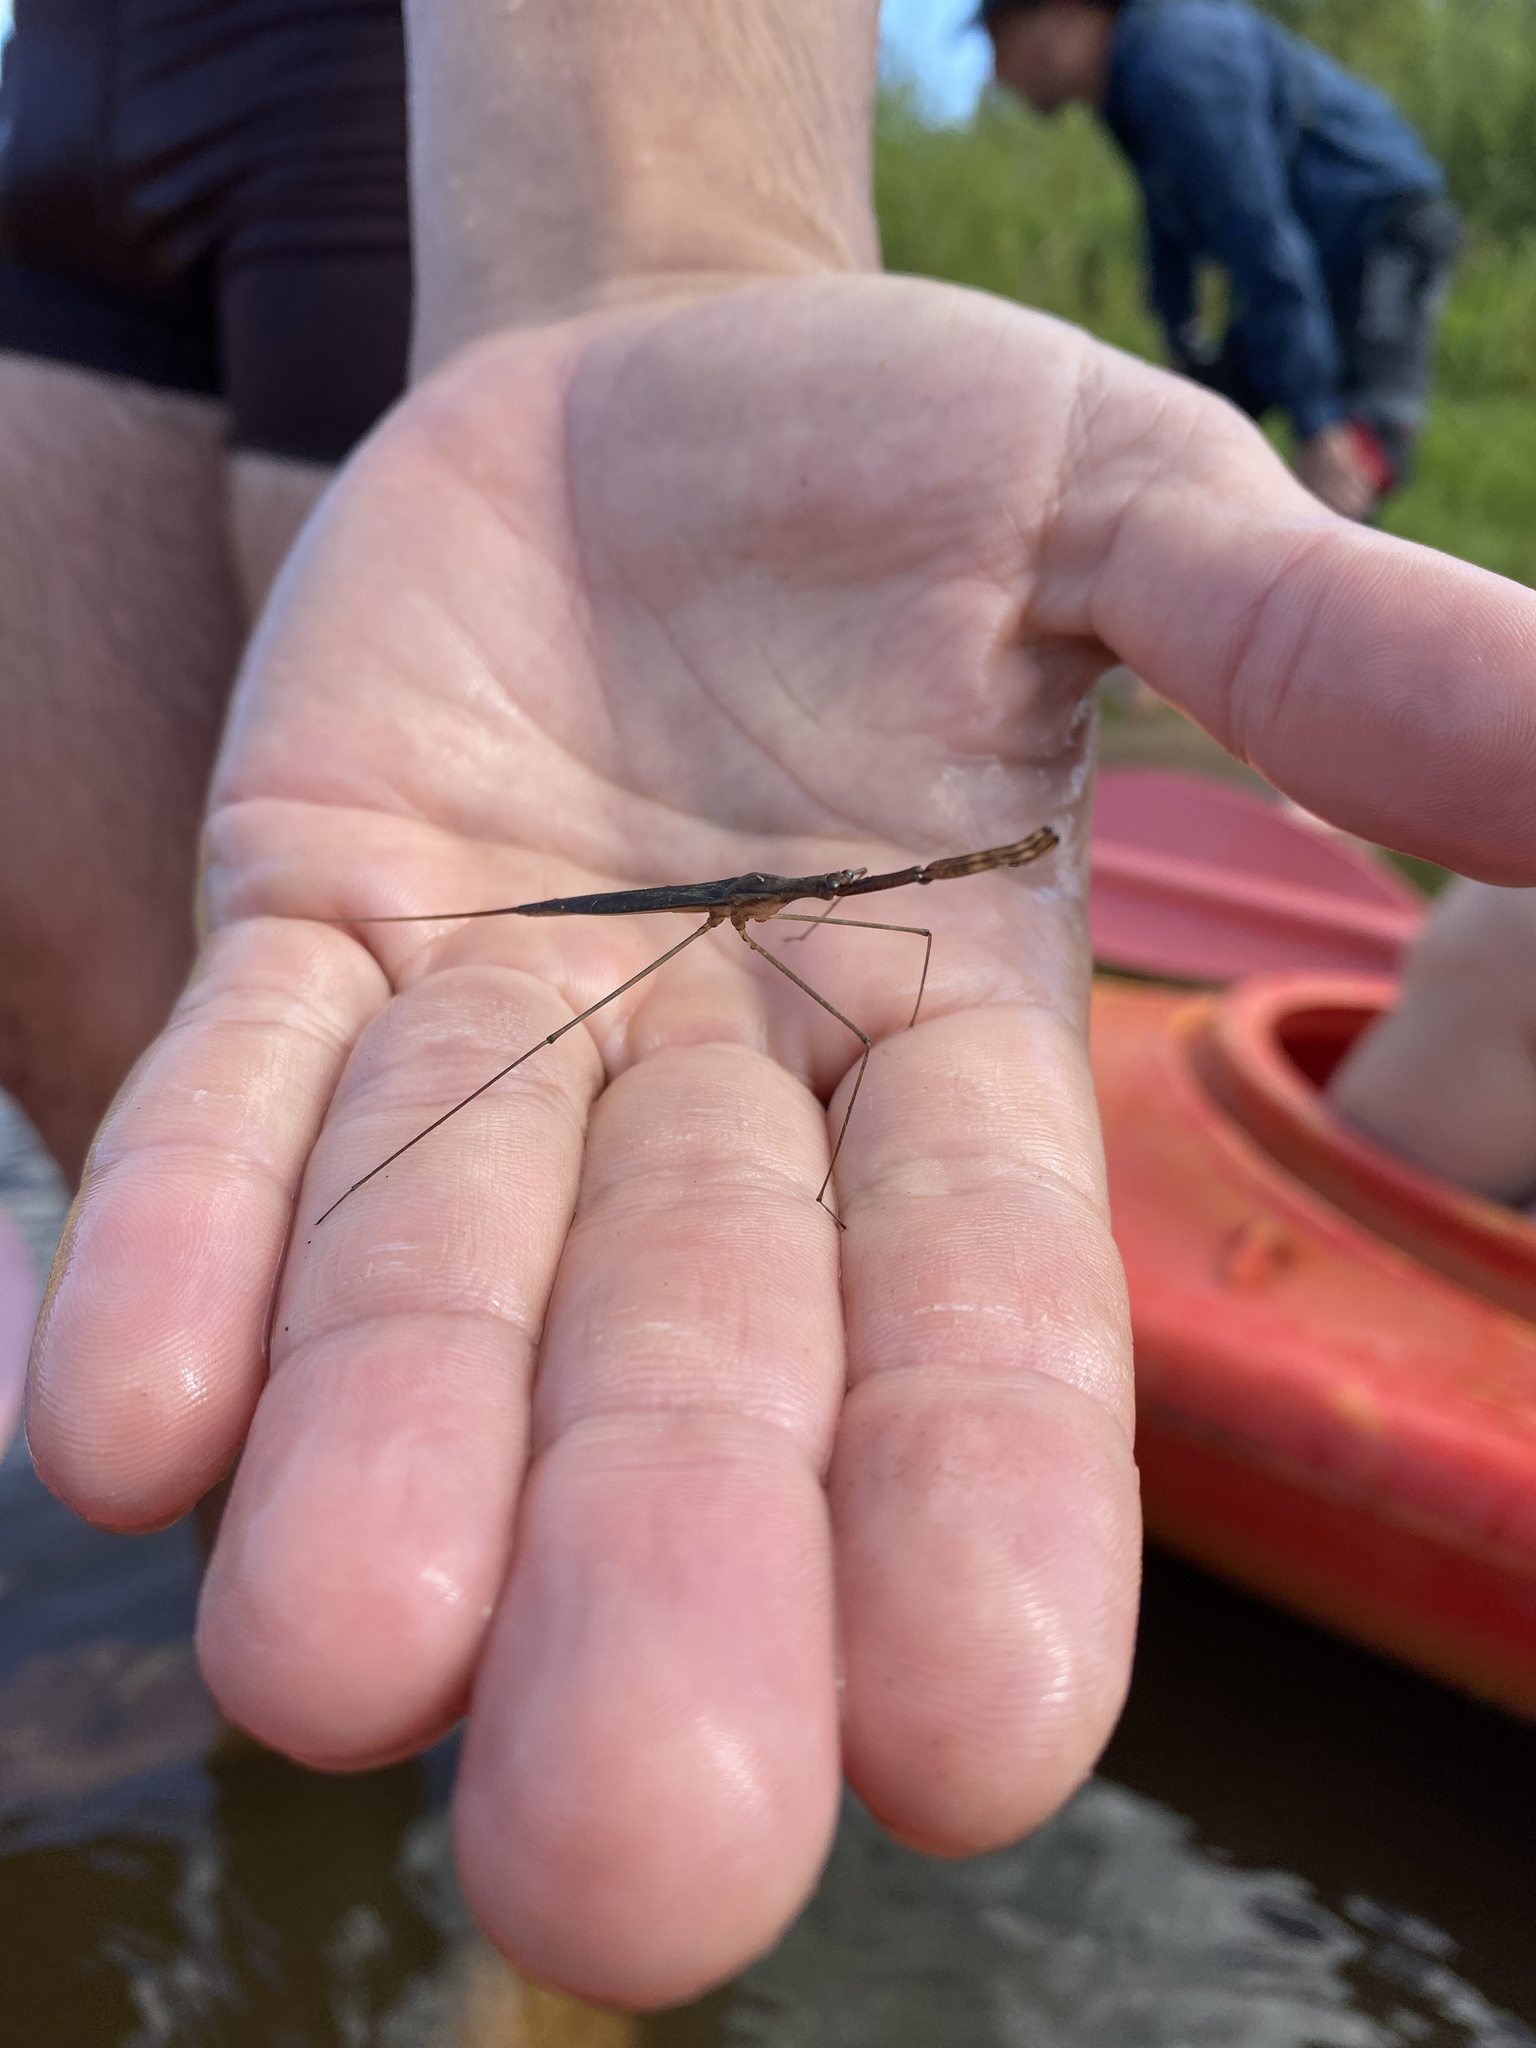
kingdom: Animalia
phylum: Arthropoda
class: Insecta
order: Hemiptera
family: Nepidae
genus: Ranatra
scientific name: Ranatra linearis
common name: Water stick insect
